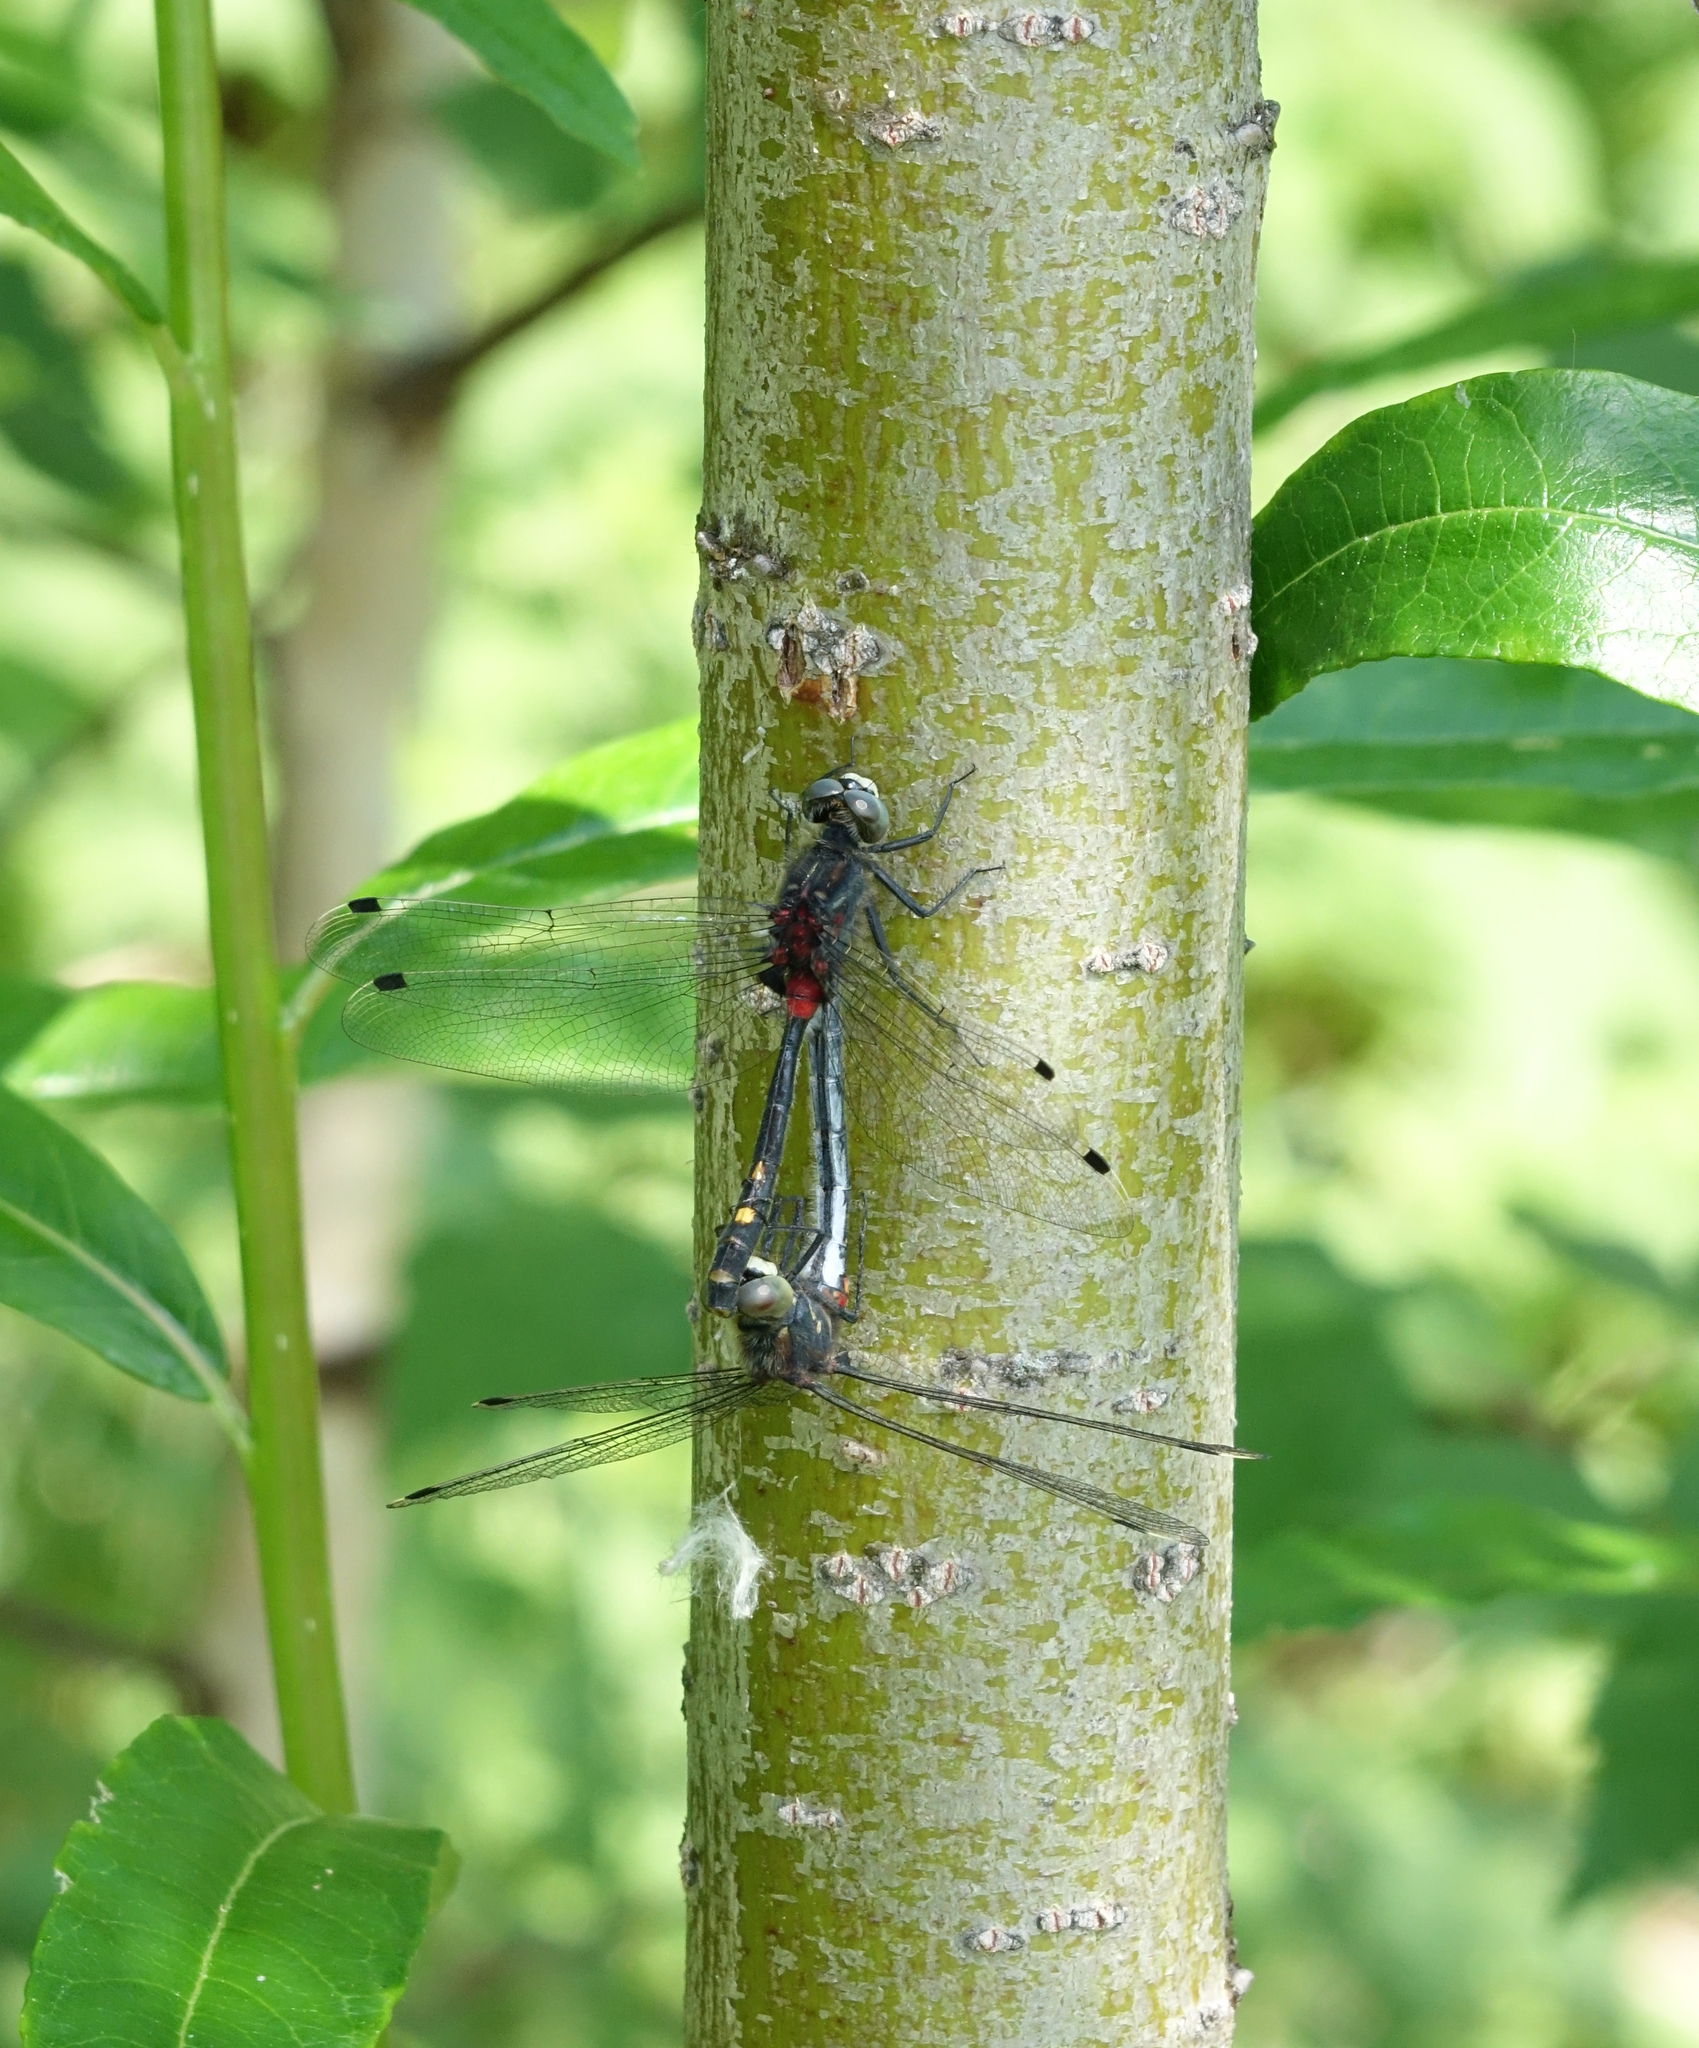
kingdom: Animalia
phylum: Arthropoda
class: Insecta
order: Odonata
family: Libellulidae
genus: Leucorrhinia
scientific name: Leucorrhinia orientalis
